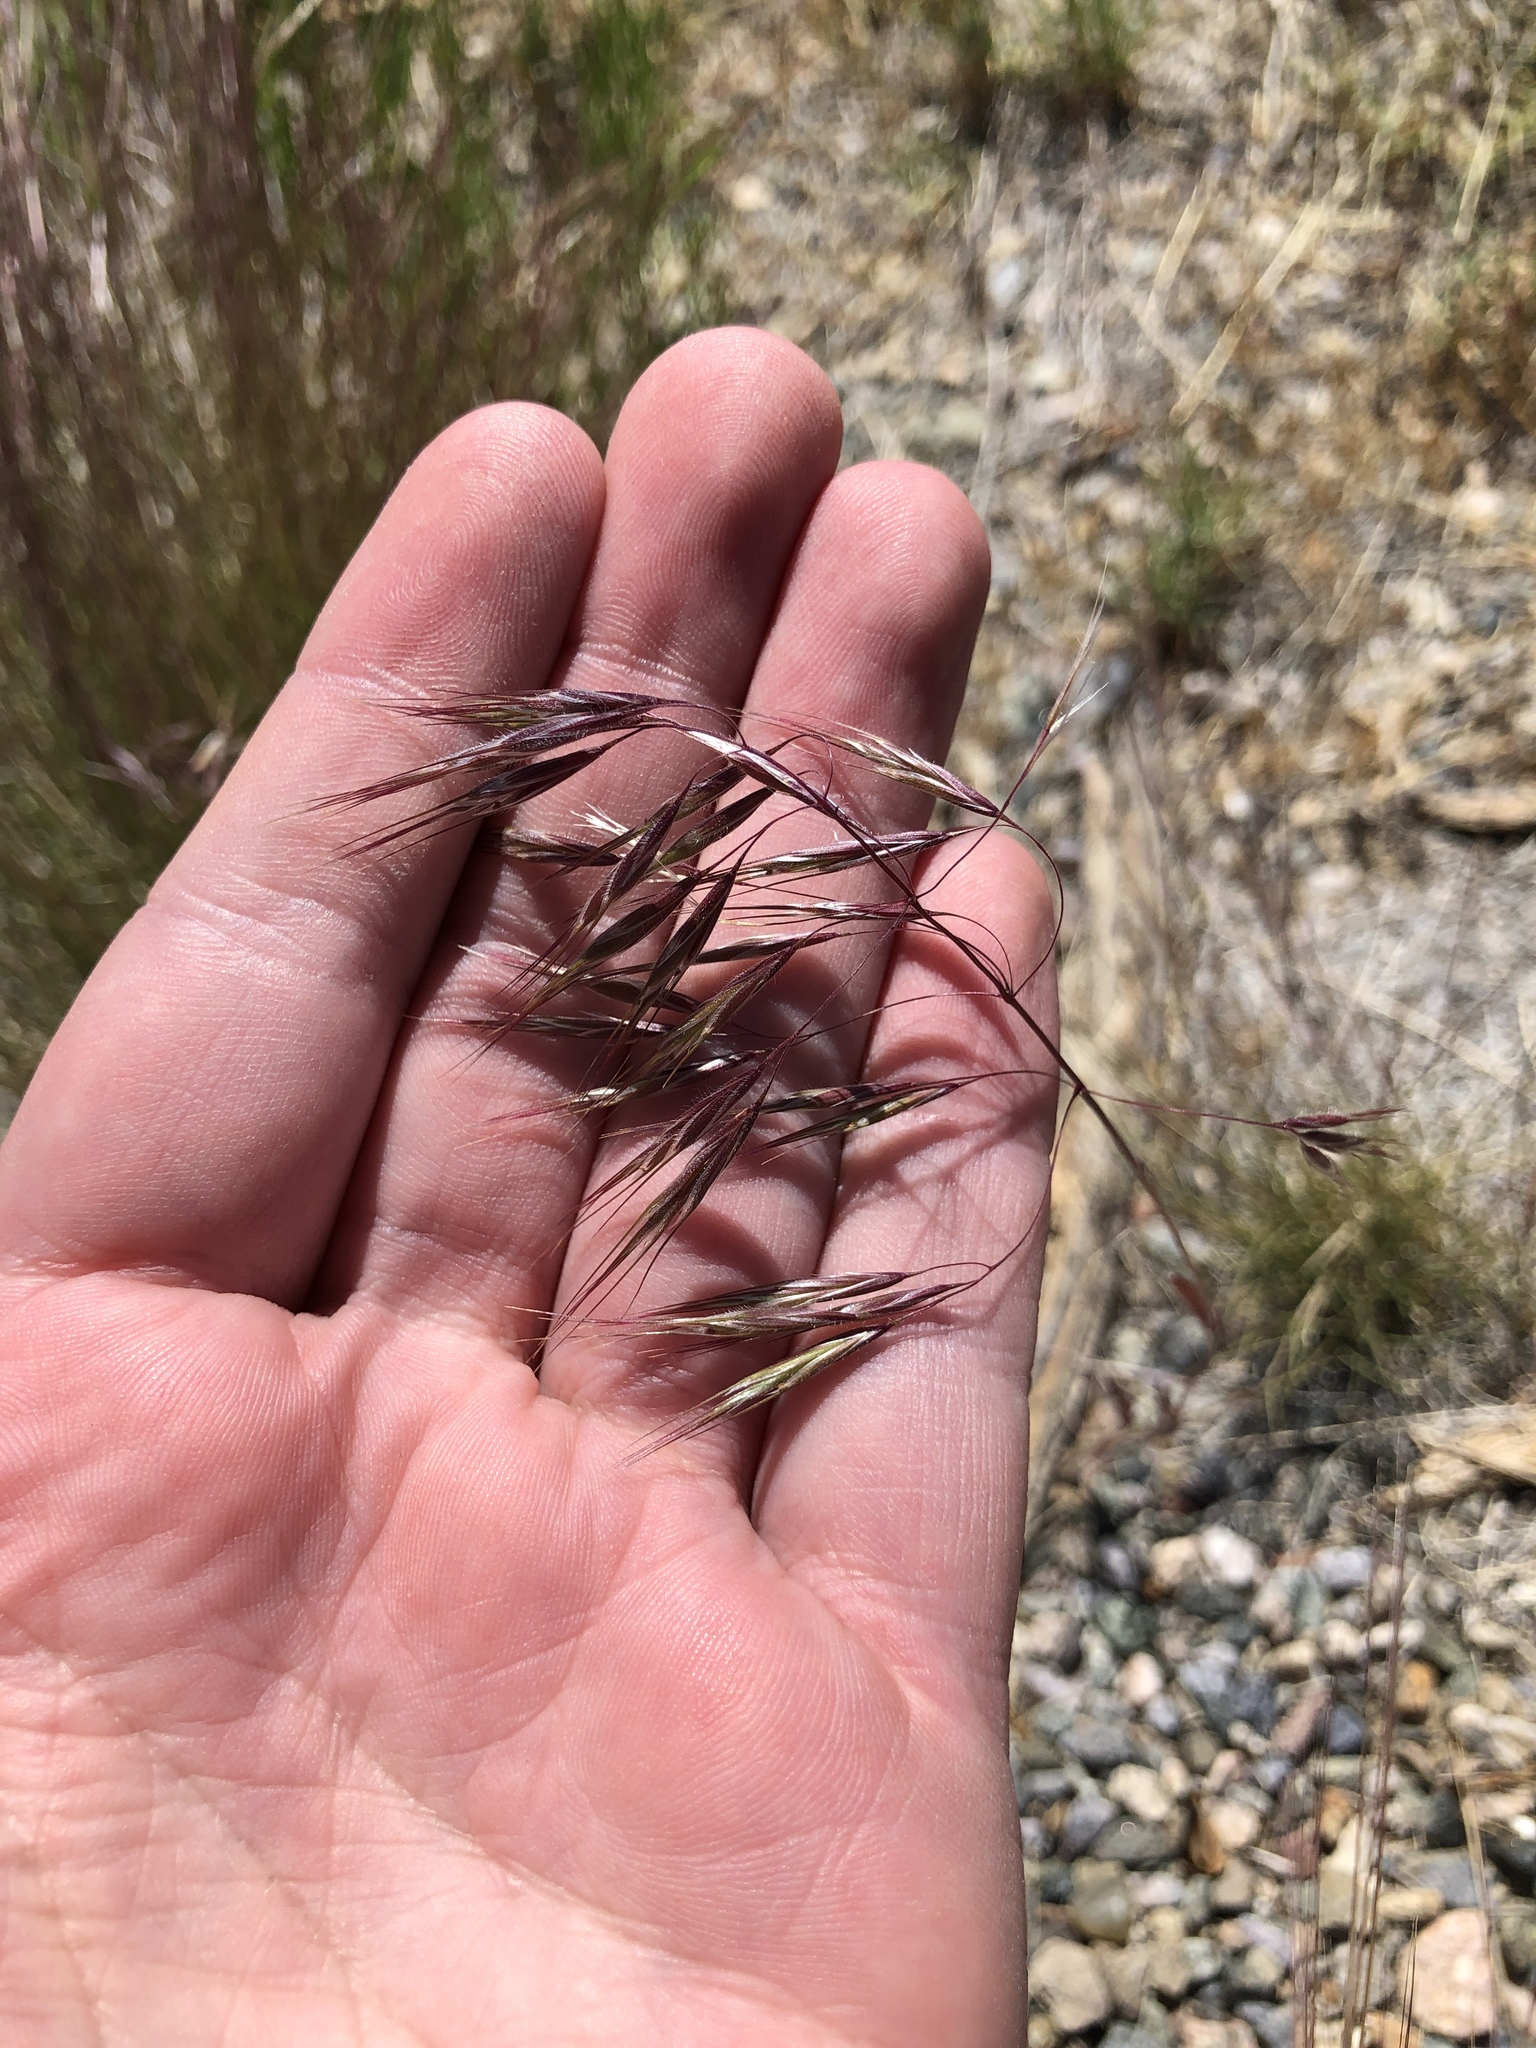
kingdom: Plantae
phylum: Tracheophyta
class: Liliopsida
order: Poales
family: Poaceae
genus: Bromus
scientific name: Bromus tectorum
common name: Cheatgrass
